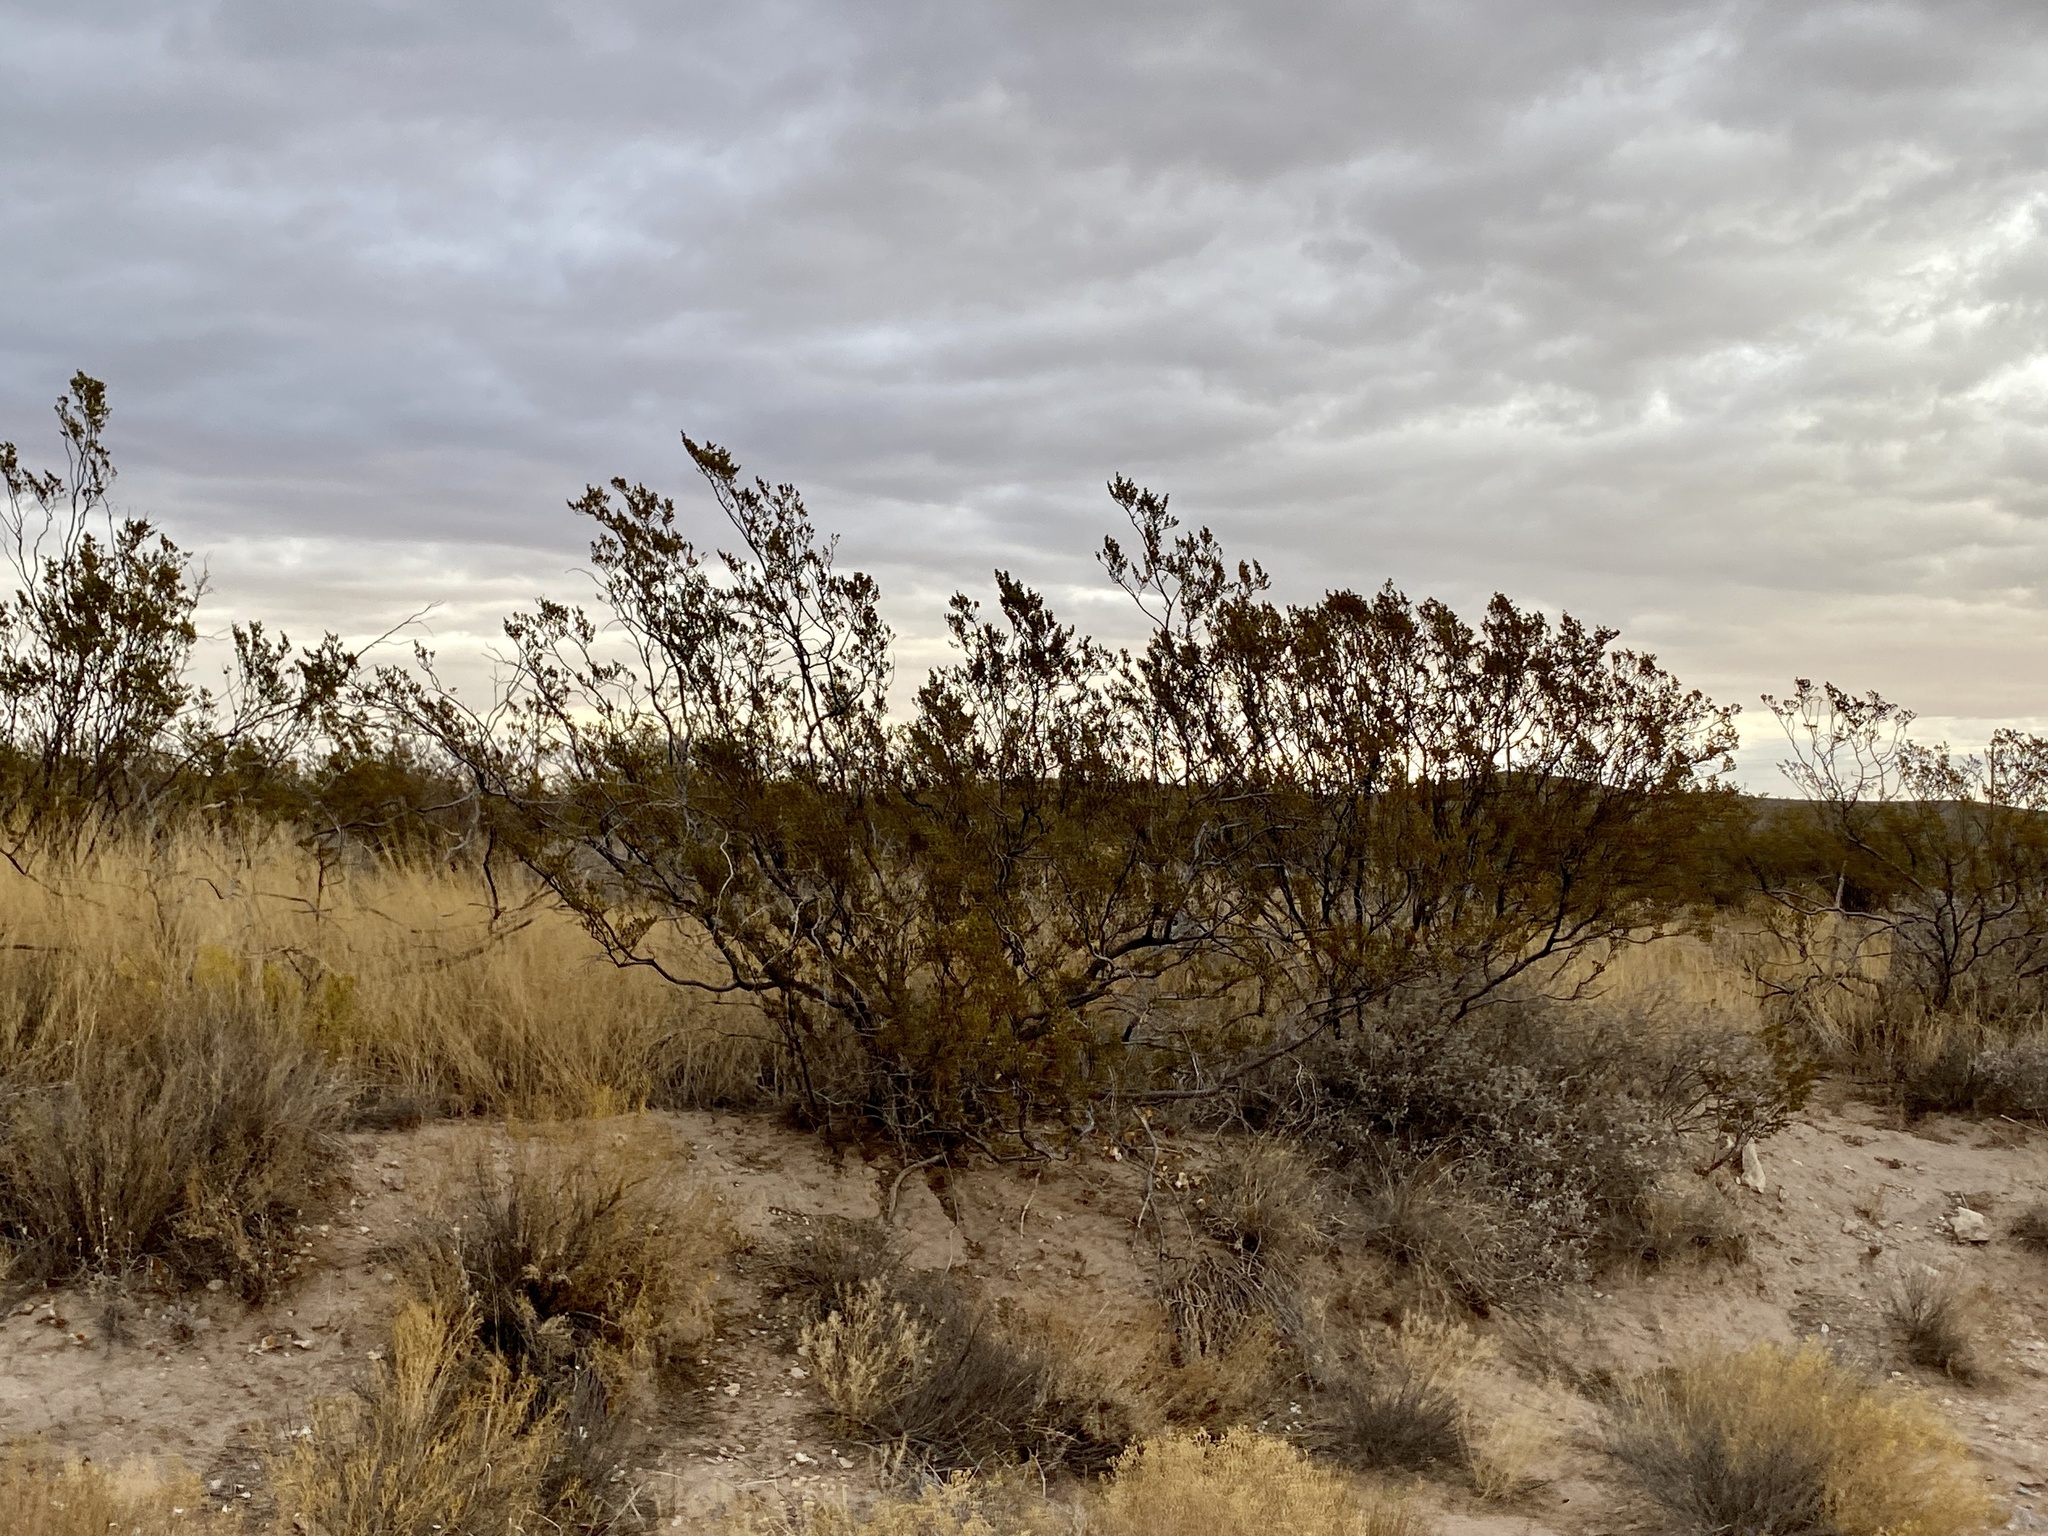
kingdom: Plantae
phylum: Tracheophyta
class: Magnoliopsida
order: Zygophyllales
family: Zygophyllaceae
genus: Larrea
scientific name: Larrea tridentata
